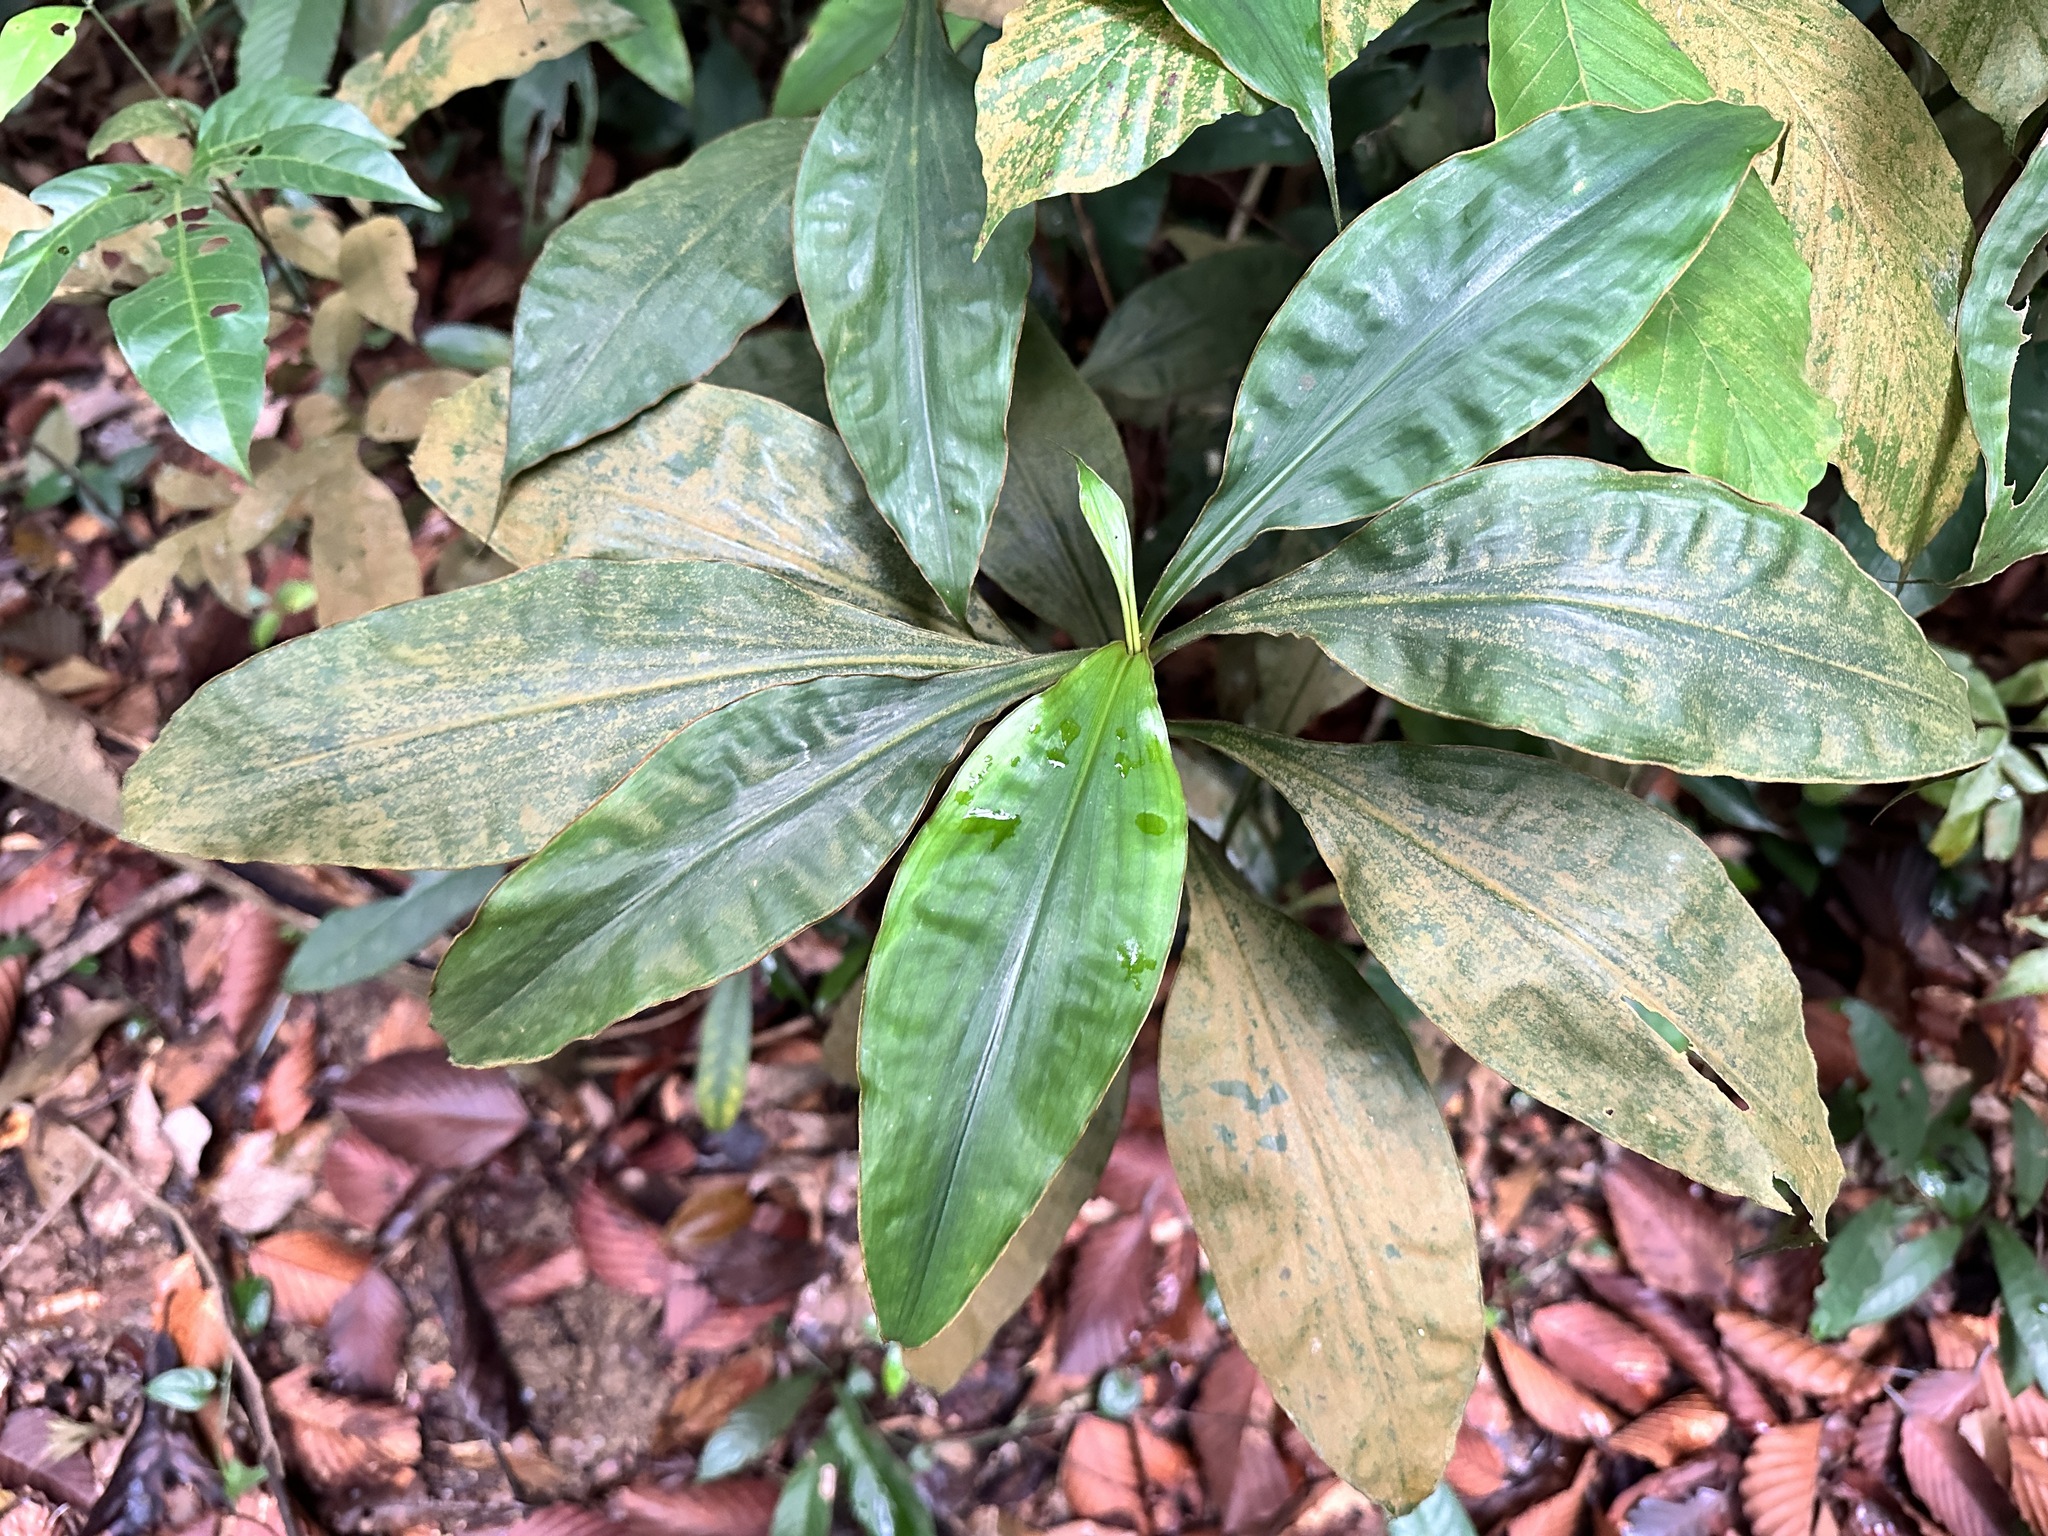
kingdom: Plantae
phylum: Tracheophyta
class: Liliopsida
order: Commelinales
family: Commelinaceae
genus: Amischotolype
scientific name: Amischotolype gracilis
